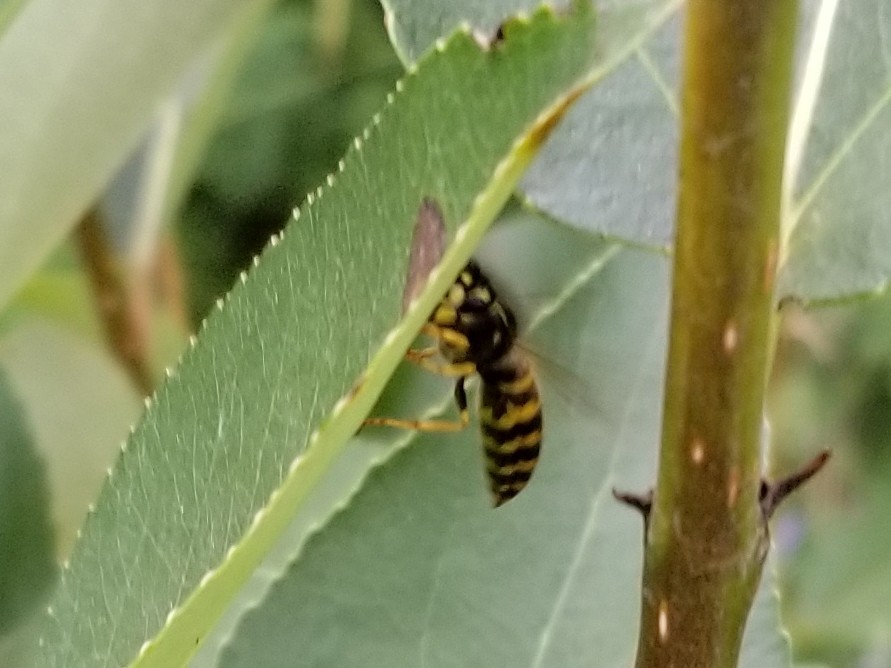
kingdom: Animalia
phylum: Arthropoda
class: Insecta
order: Hymenoptera
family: Vespidae
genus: Vespula
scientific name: Vespula alascensis
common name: Alaska yellowjacket
